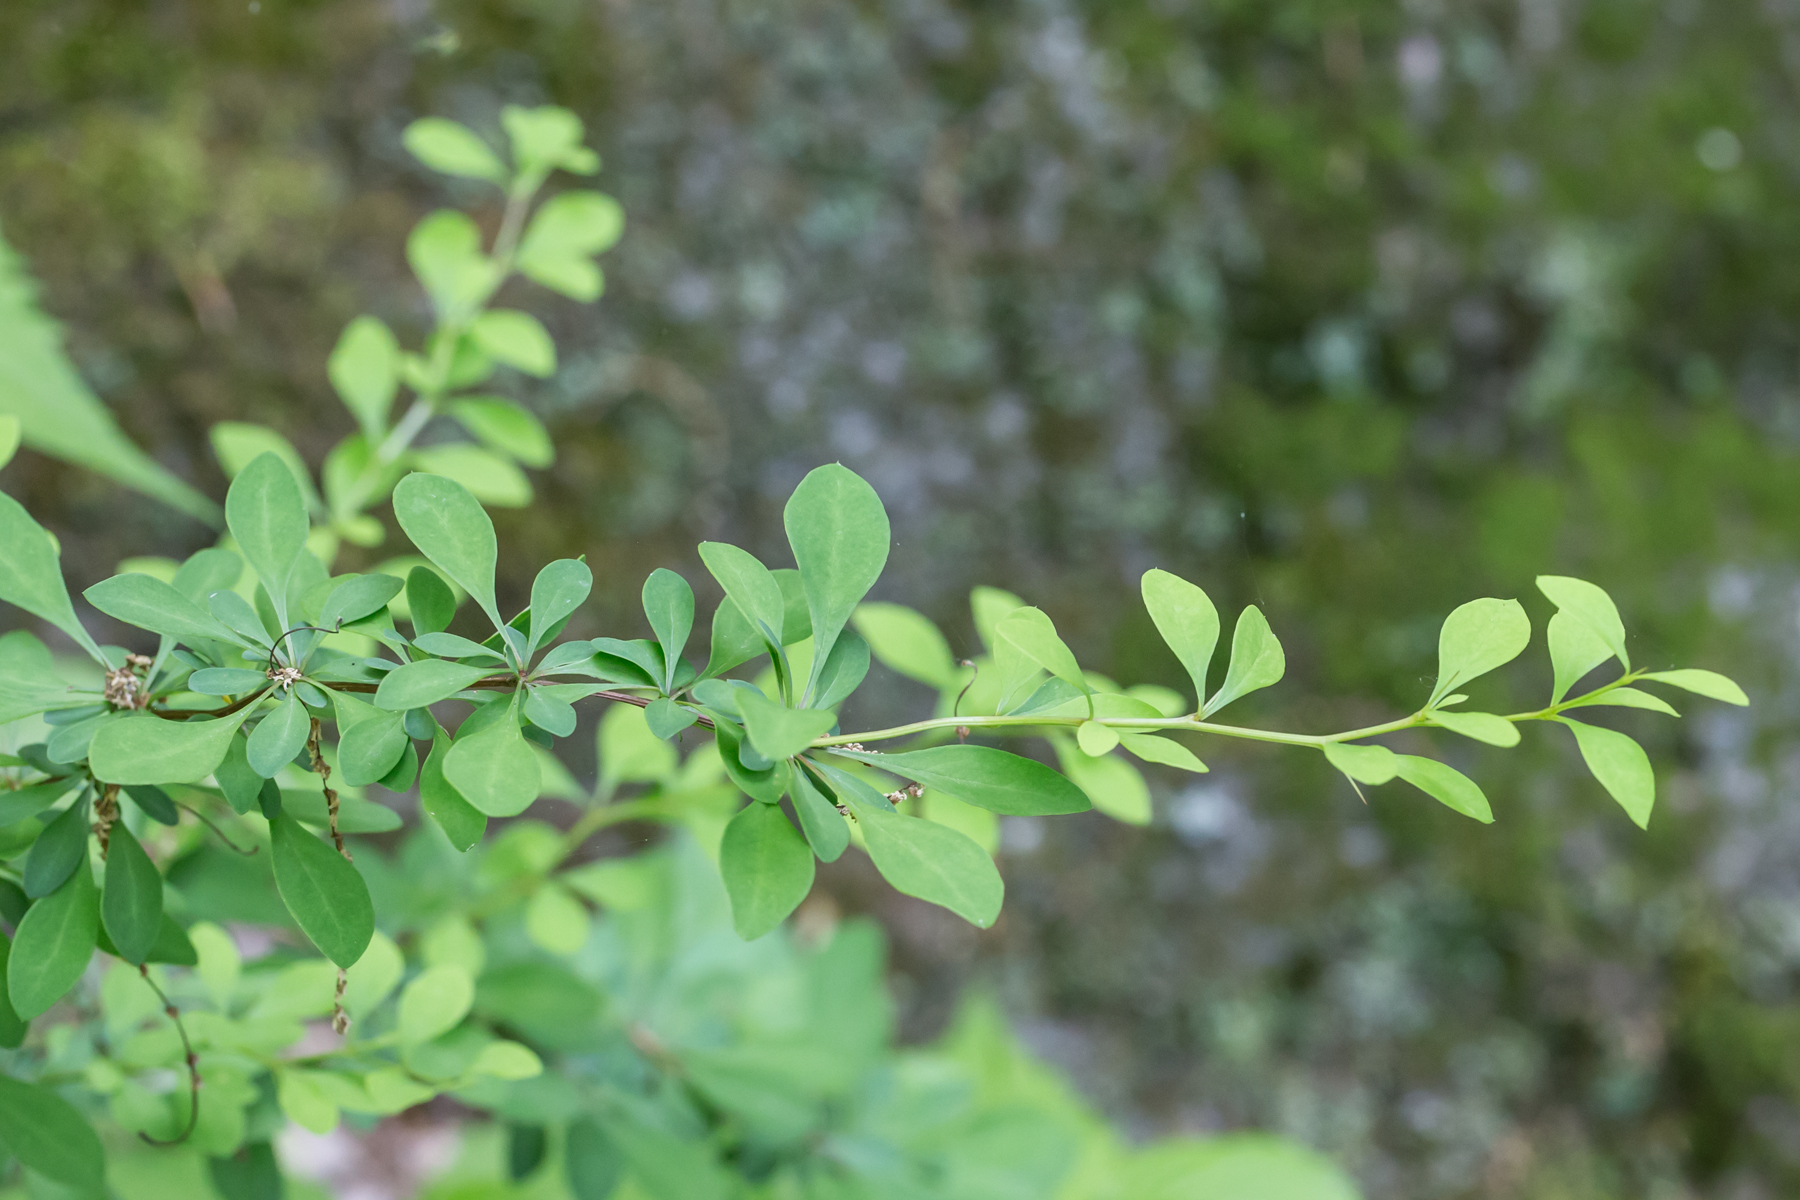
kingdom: Plantae
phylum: Tracheophyta
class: Magnoliopsida
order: Ranunculales
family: Berberidaceae
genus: Berberis
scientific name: Berberis thunbergii
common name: Japanese barberry
